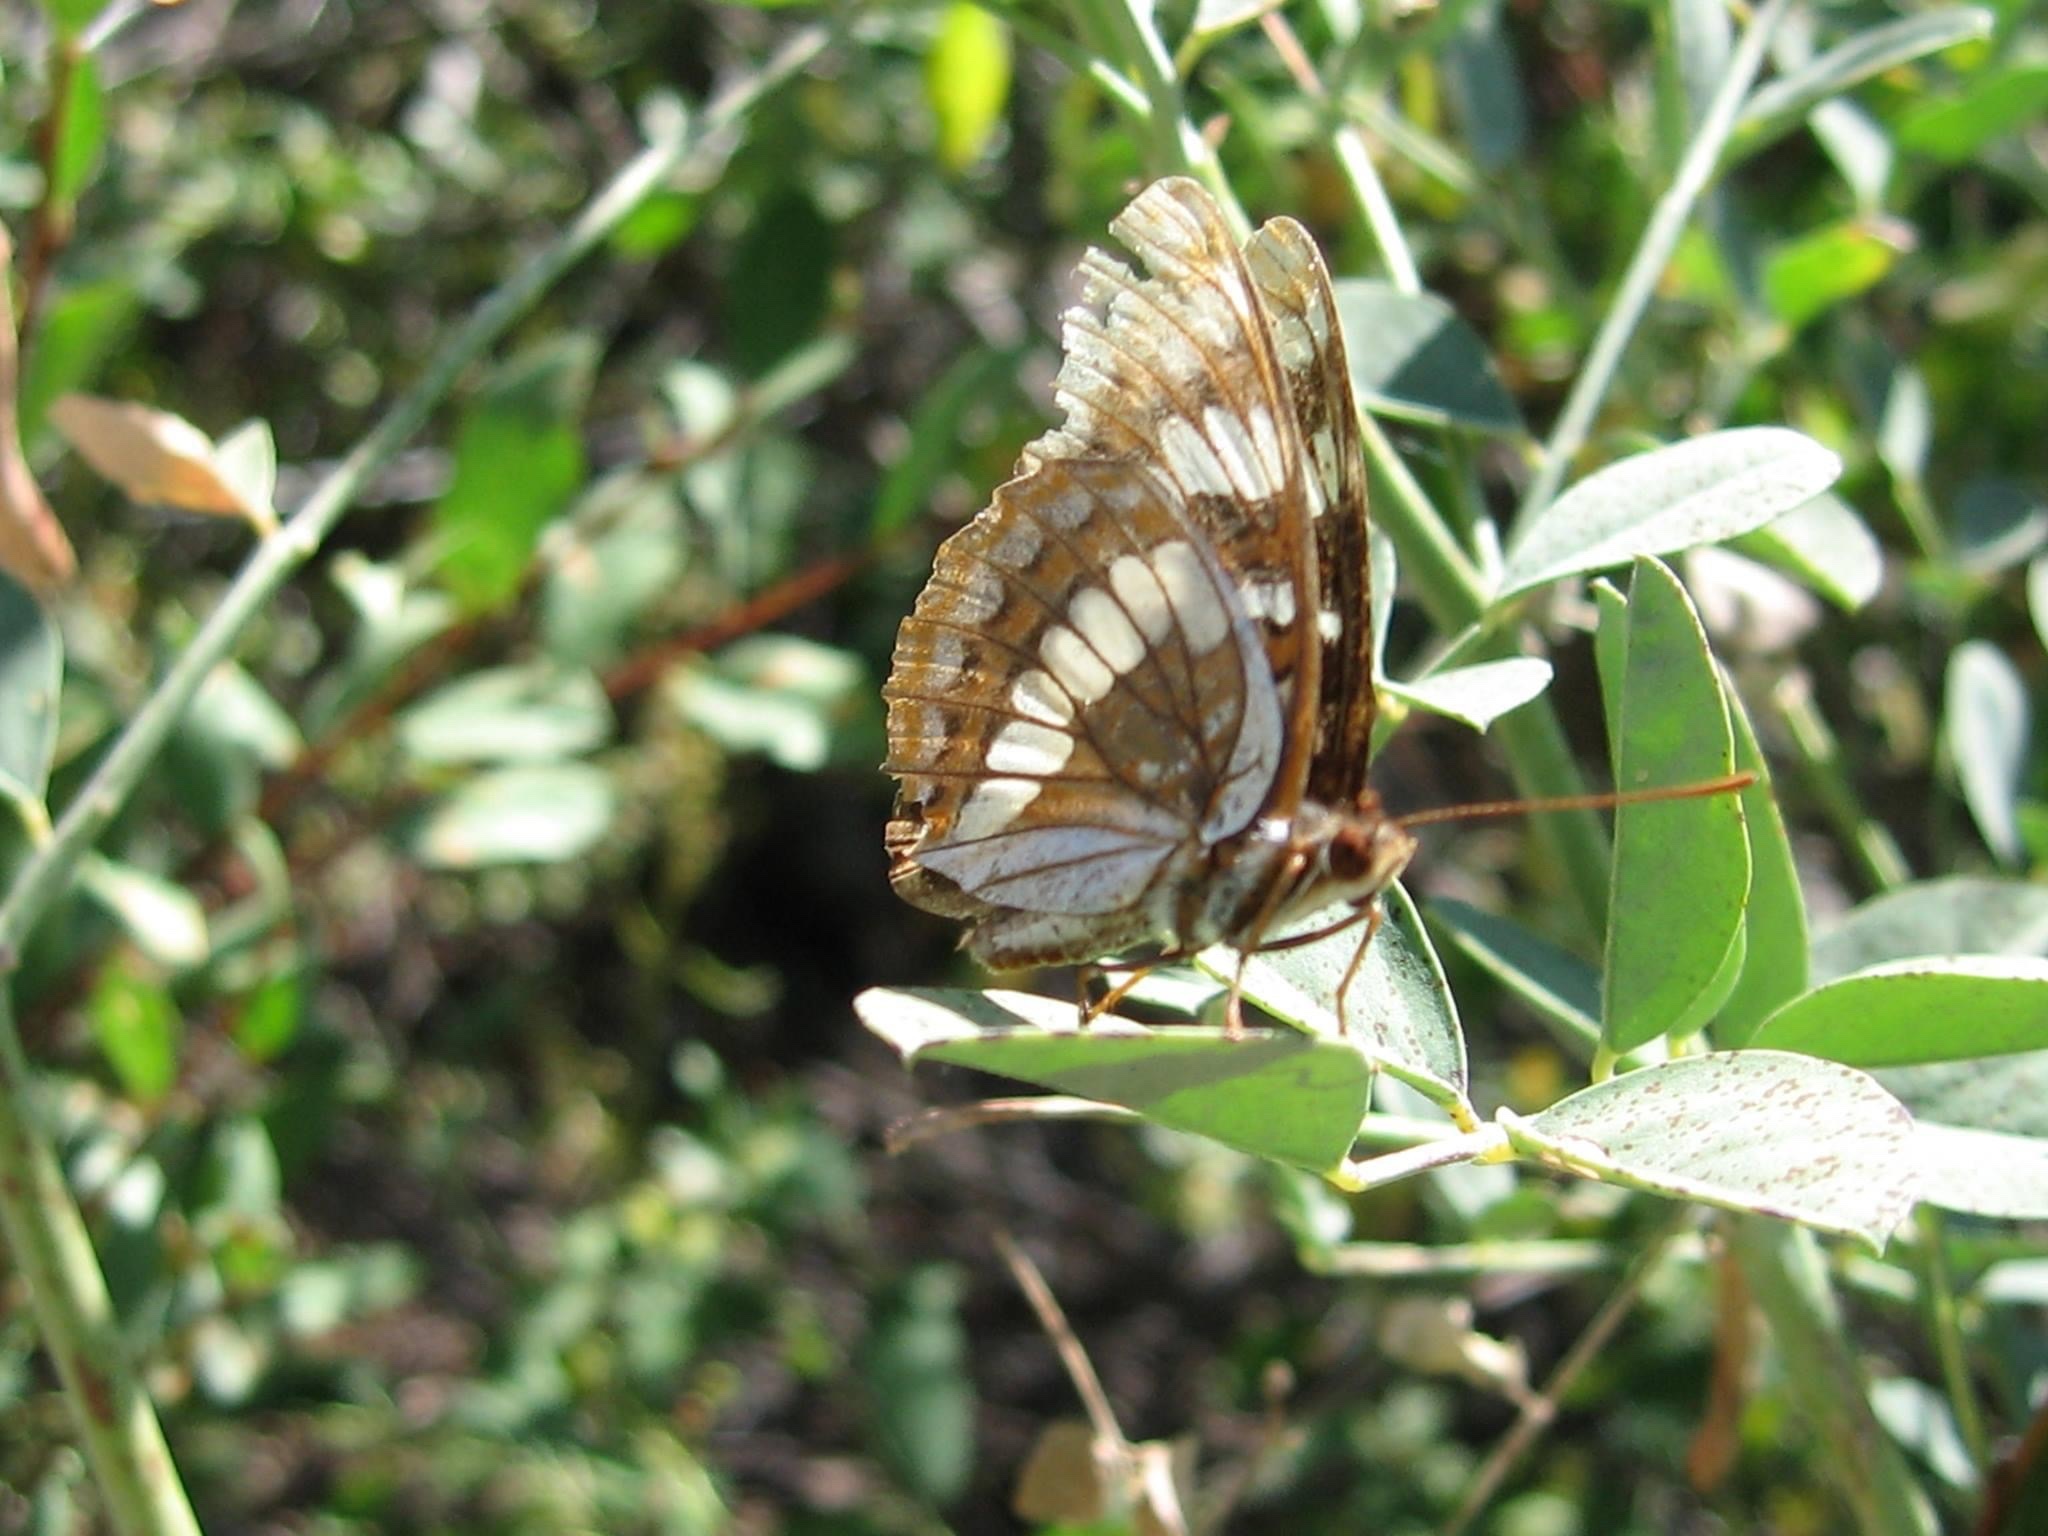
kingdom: Animalia
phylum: Arthropoda
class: Insecta
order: Lepidoptera
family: Nymphalidae
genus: Limenitis
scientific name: Limenitis lorquini
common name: Lorquin's admiral
